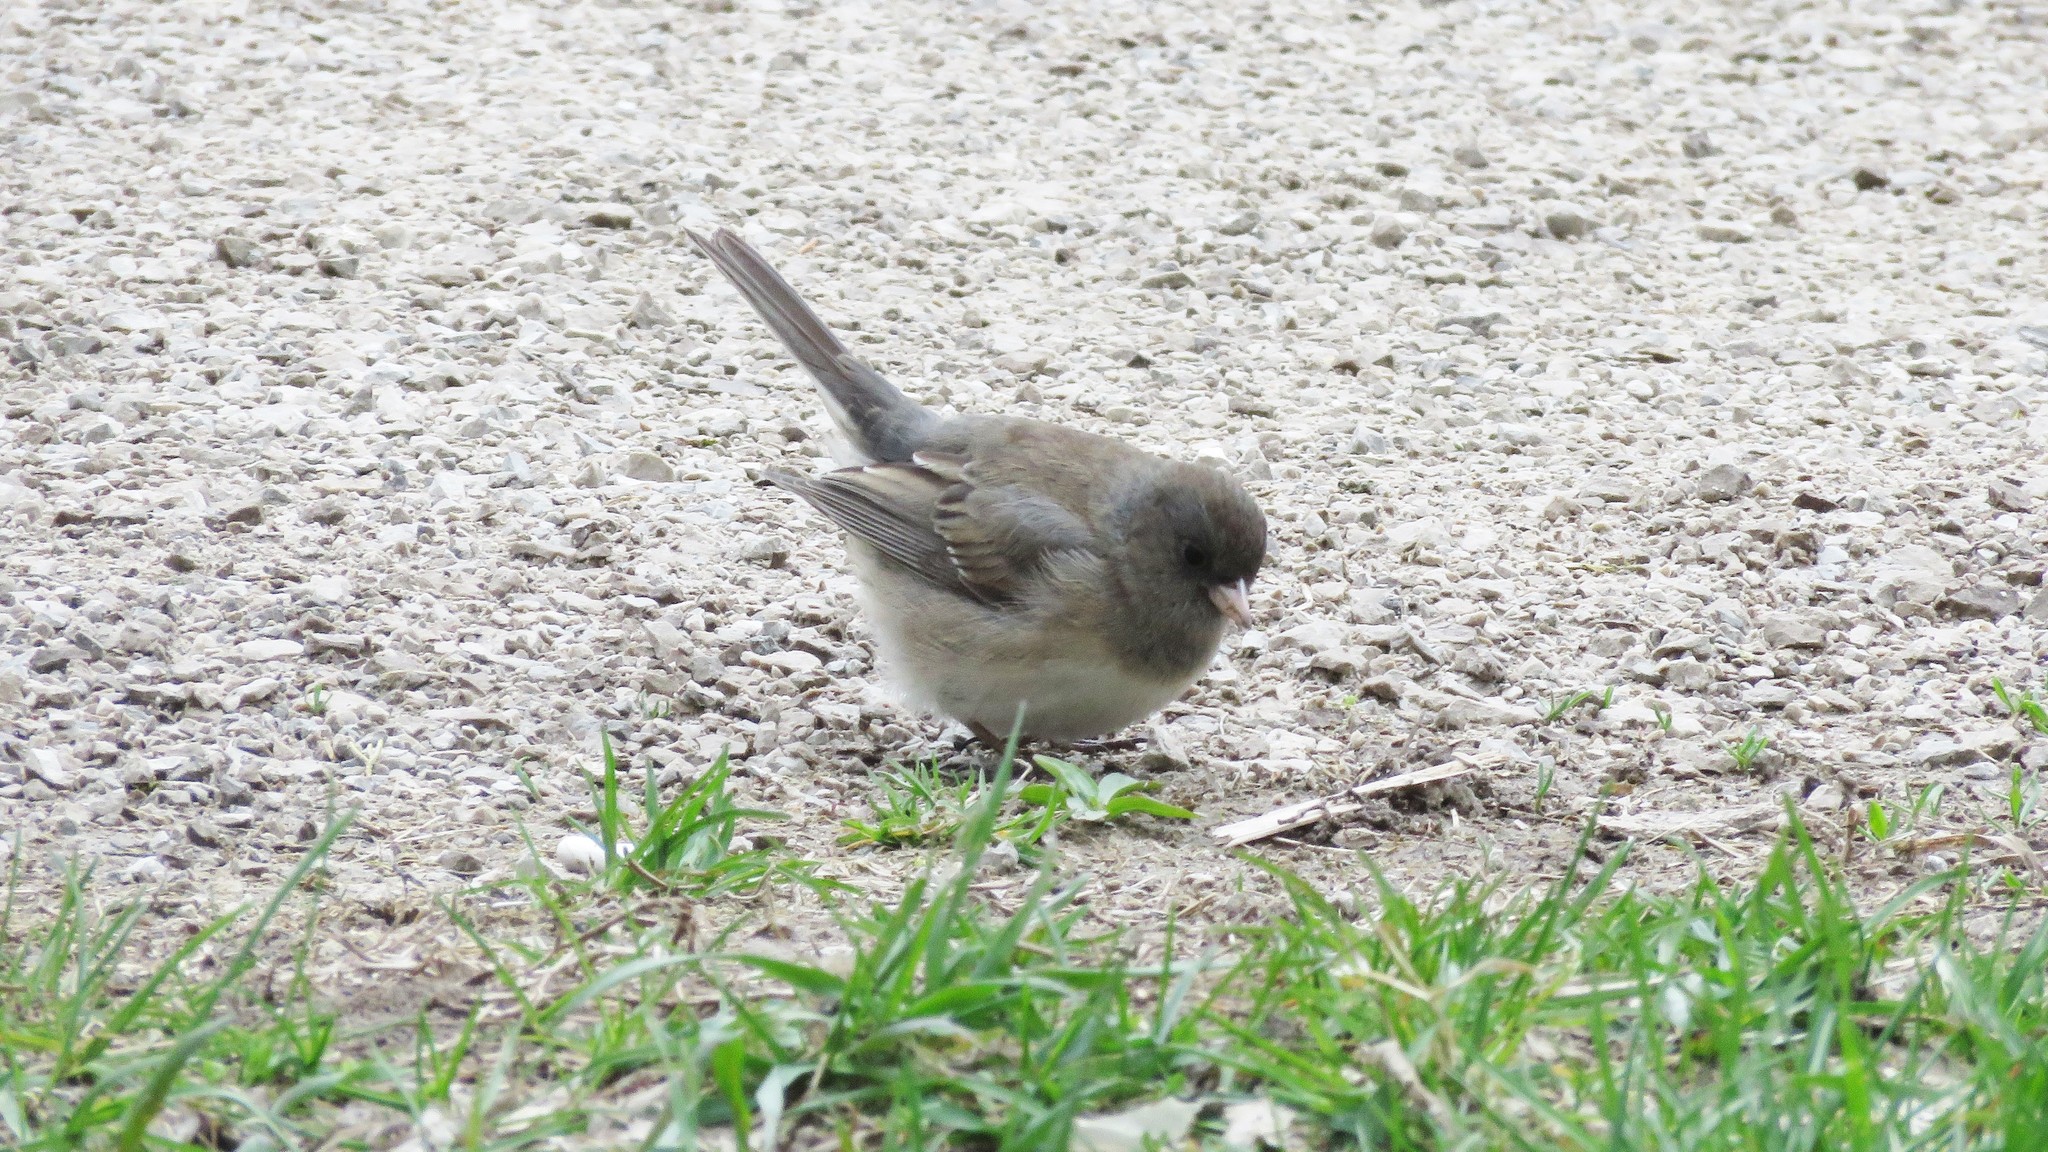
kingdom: Animalia
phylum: Chordata
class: Aves
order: Passeriformes
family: Passerellidae
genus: Junco
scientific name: Junco hyemalis
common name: Dark-eyed junco
